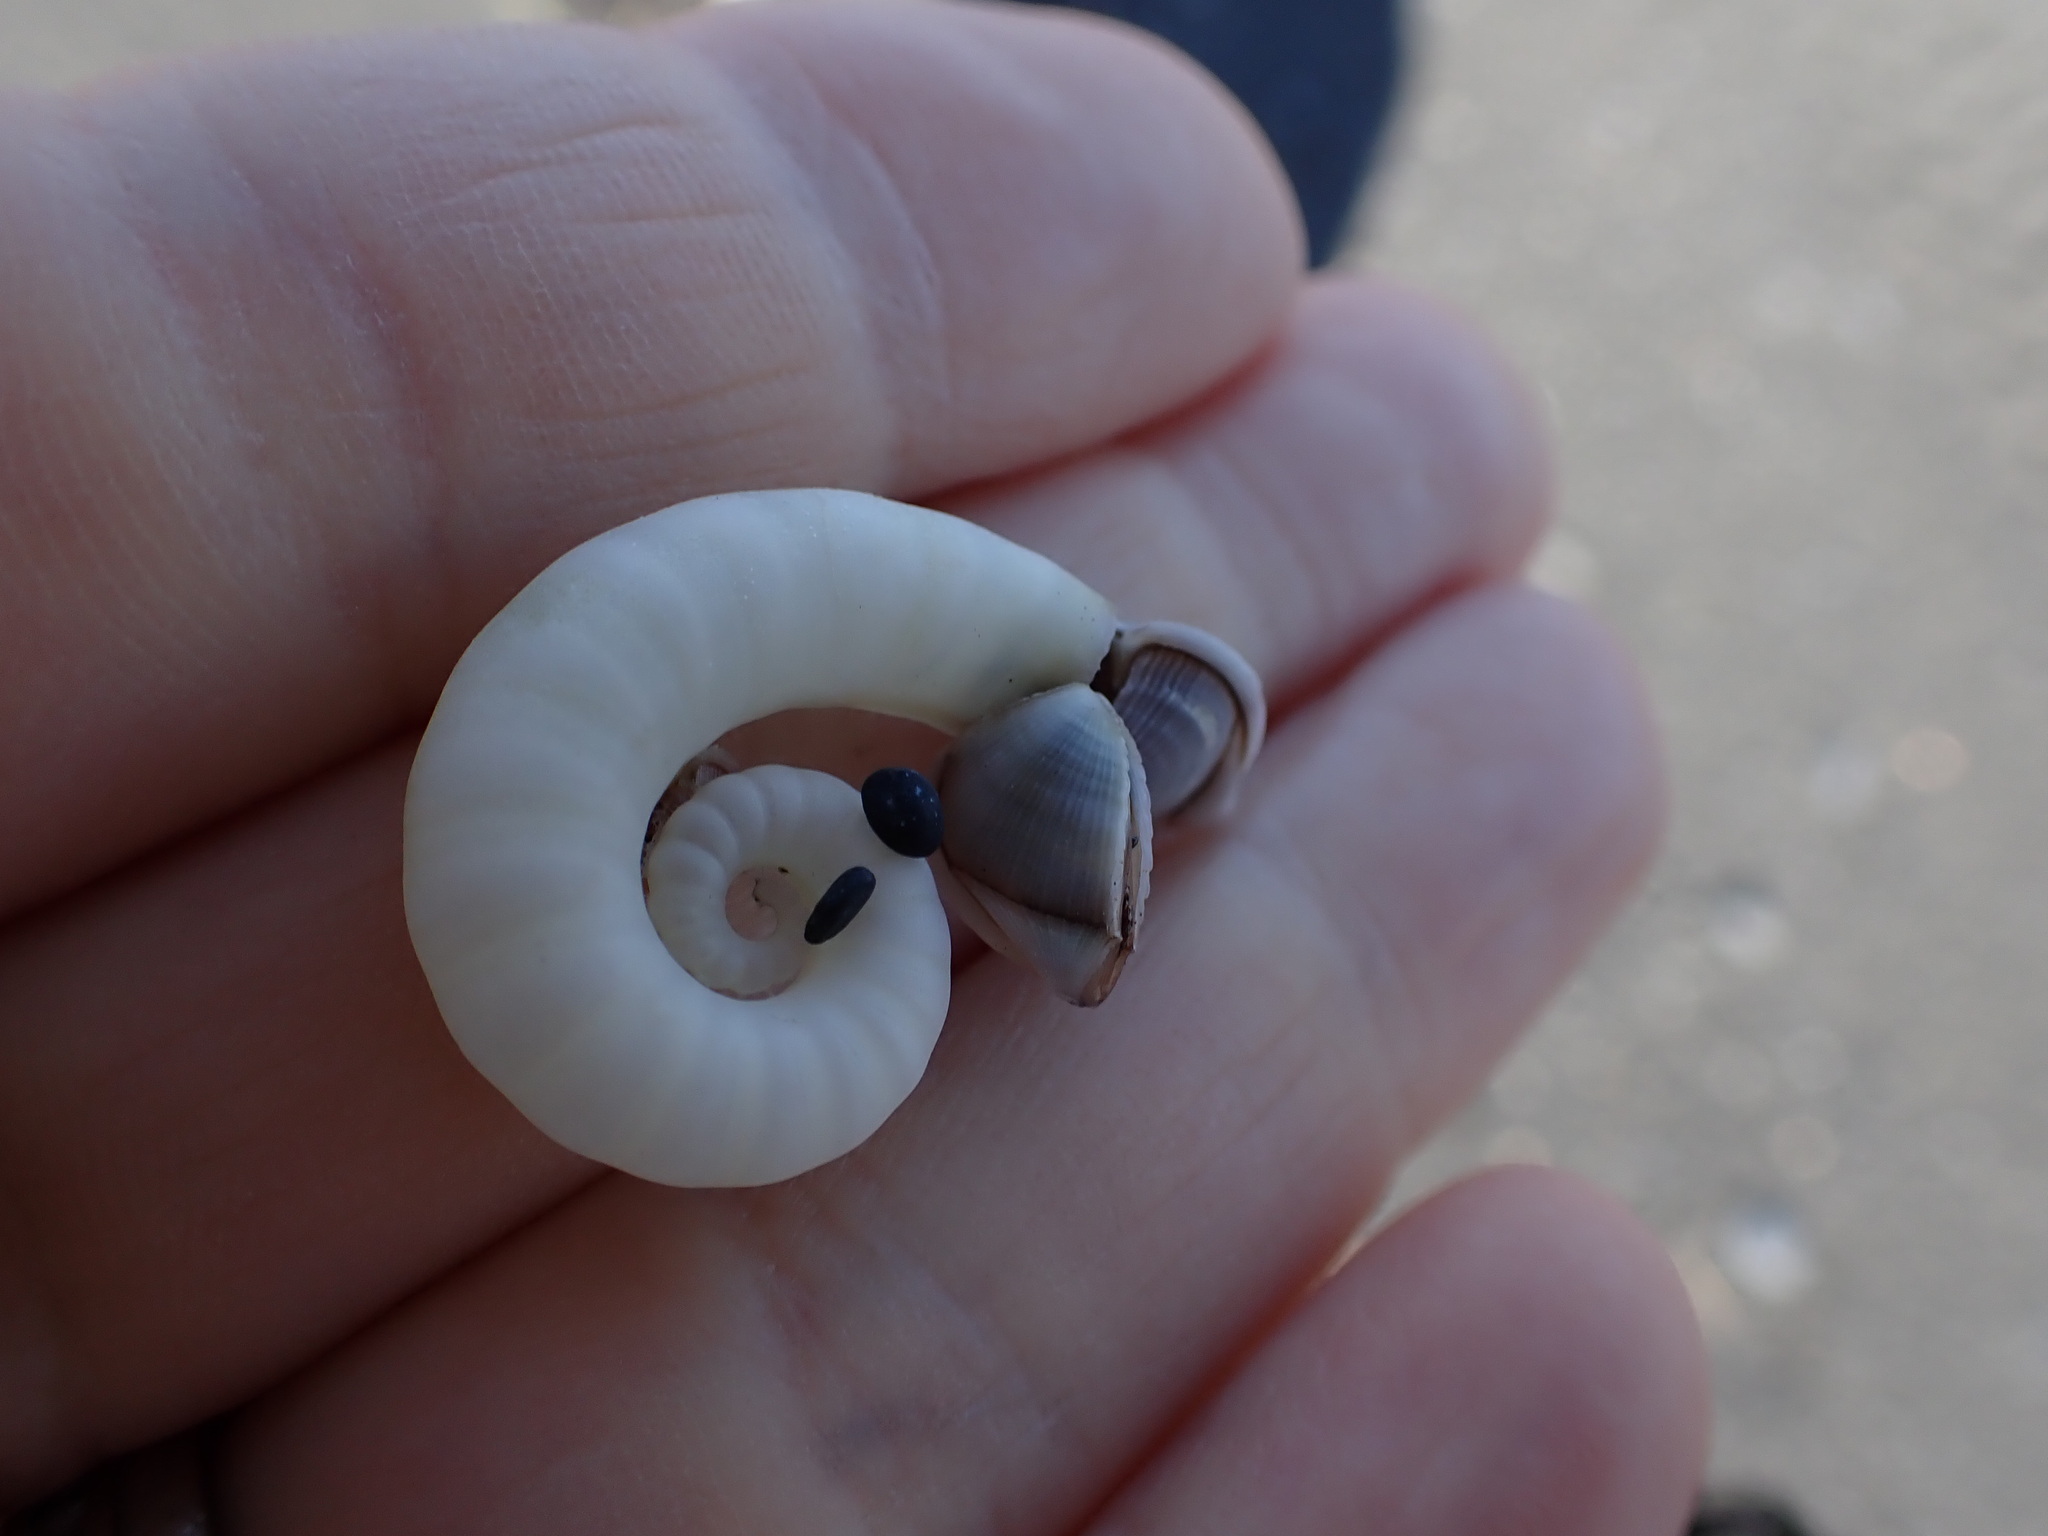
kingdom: Animalia
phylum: Mollusca
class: Cephalopoda
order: Spirulida
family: Spirulidae
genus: Spirula
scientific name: Spirula spirula
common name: Ram's horn squid
